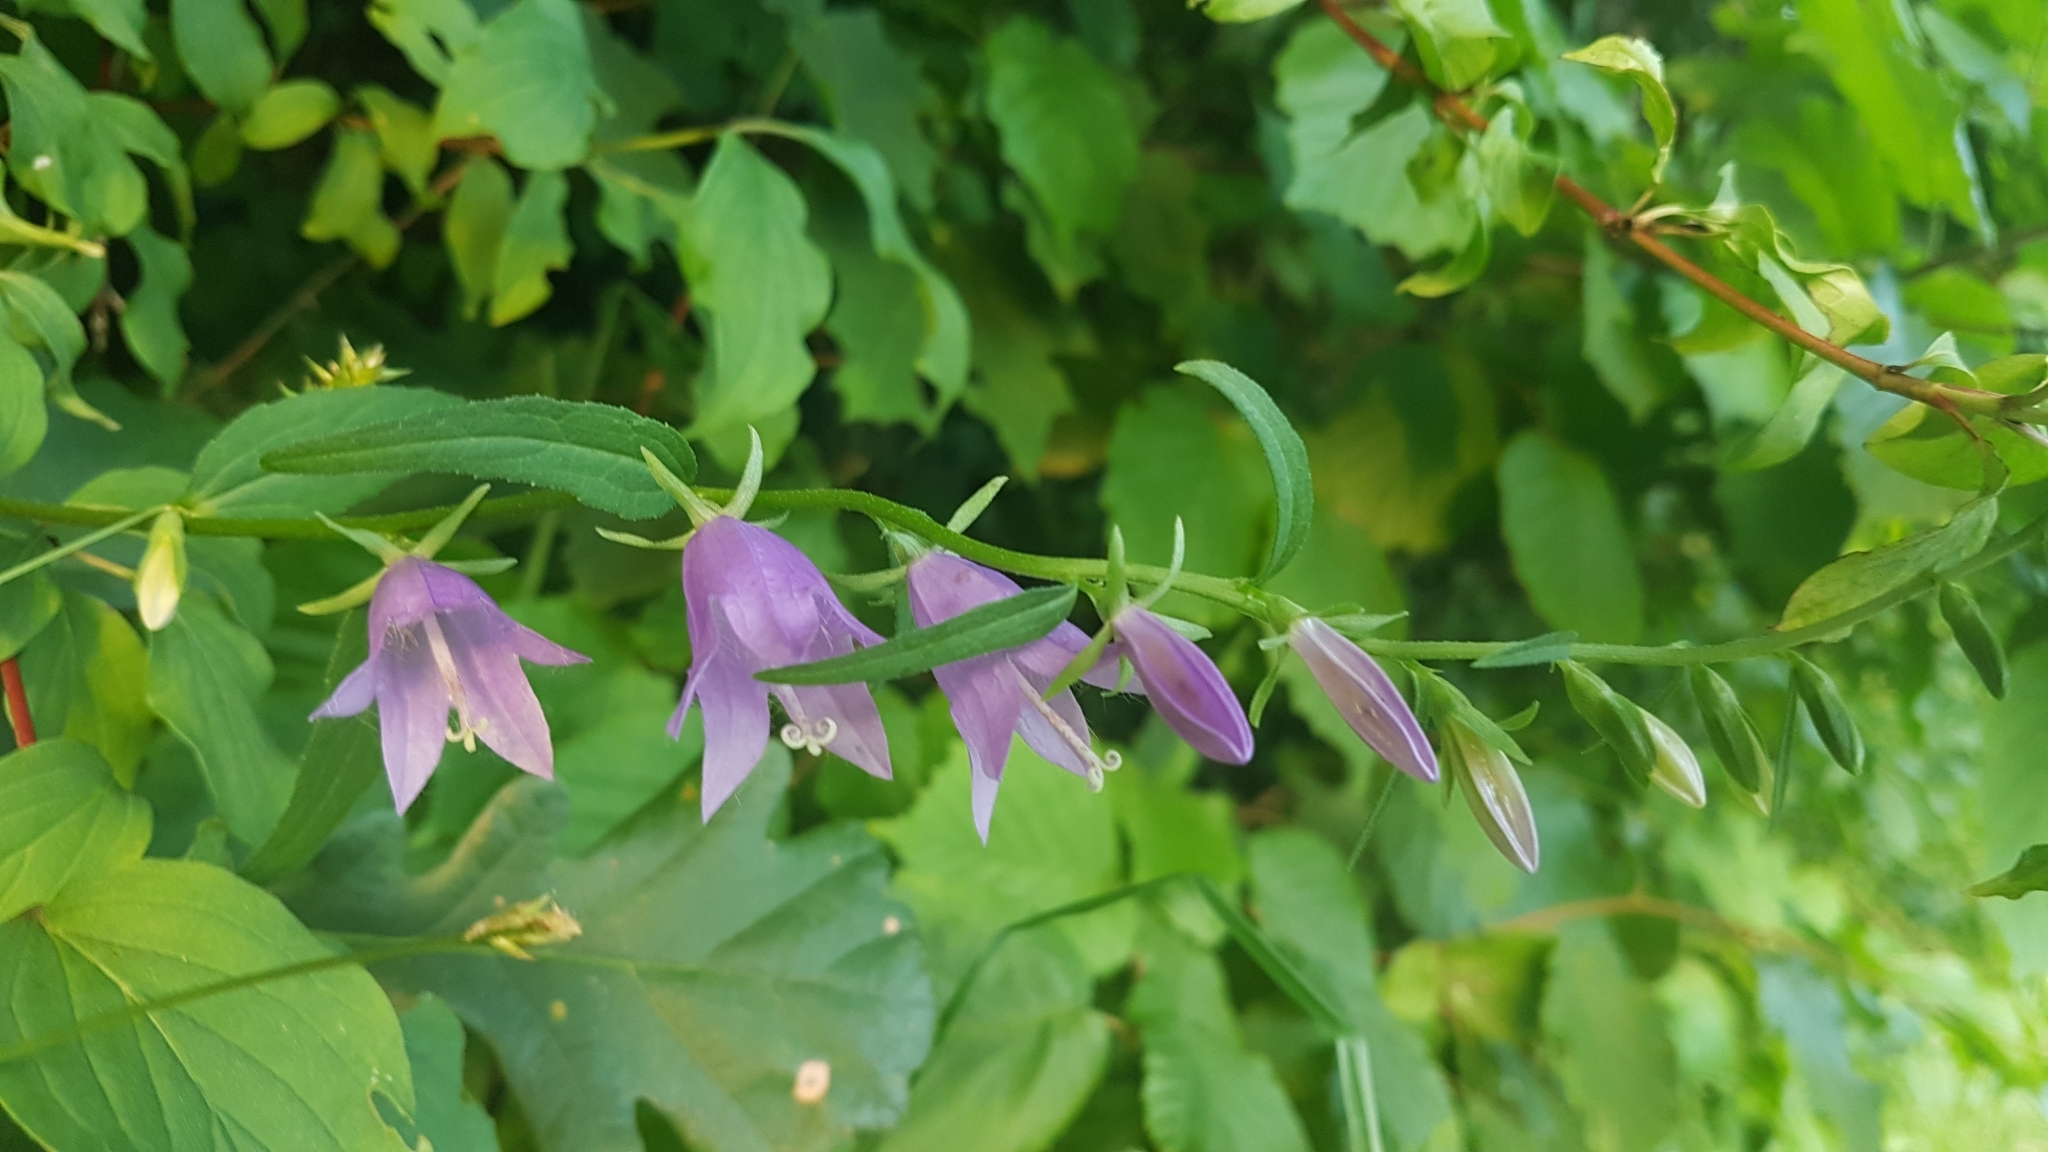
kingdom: Plantae
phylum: Tracheophyta
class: Magnoliopsida
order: Asterales
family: Campanulaceae
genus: Campanula
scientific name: Campanula rapunculoides
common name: Creeping bellflower
